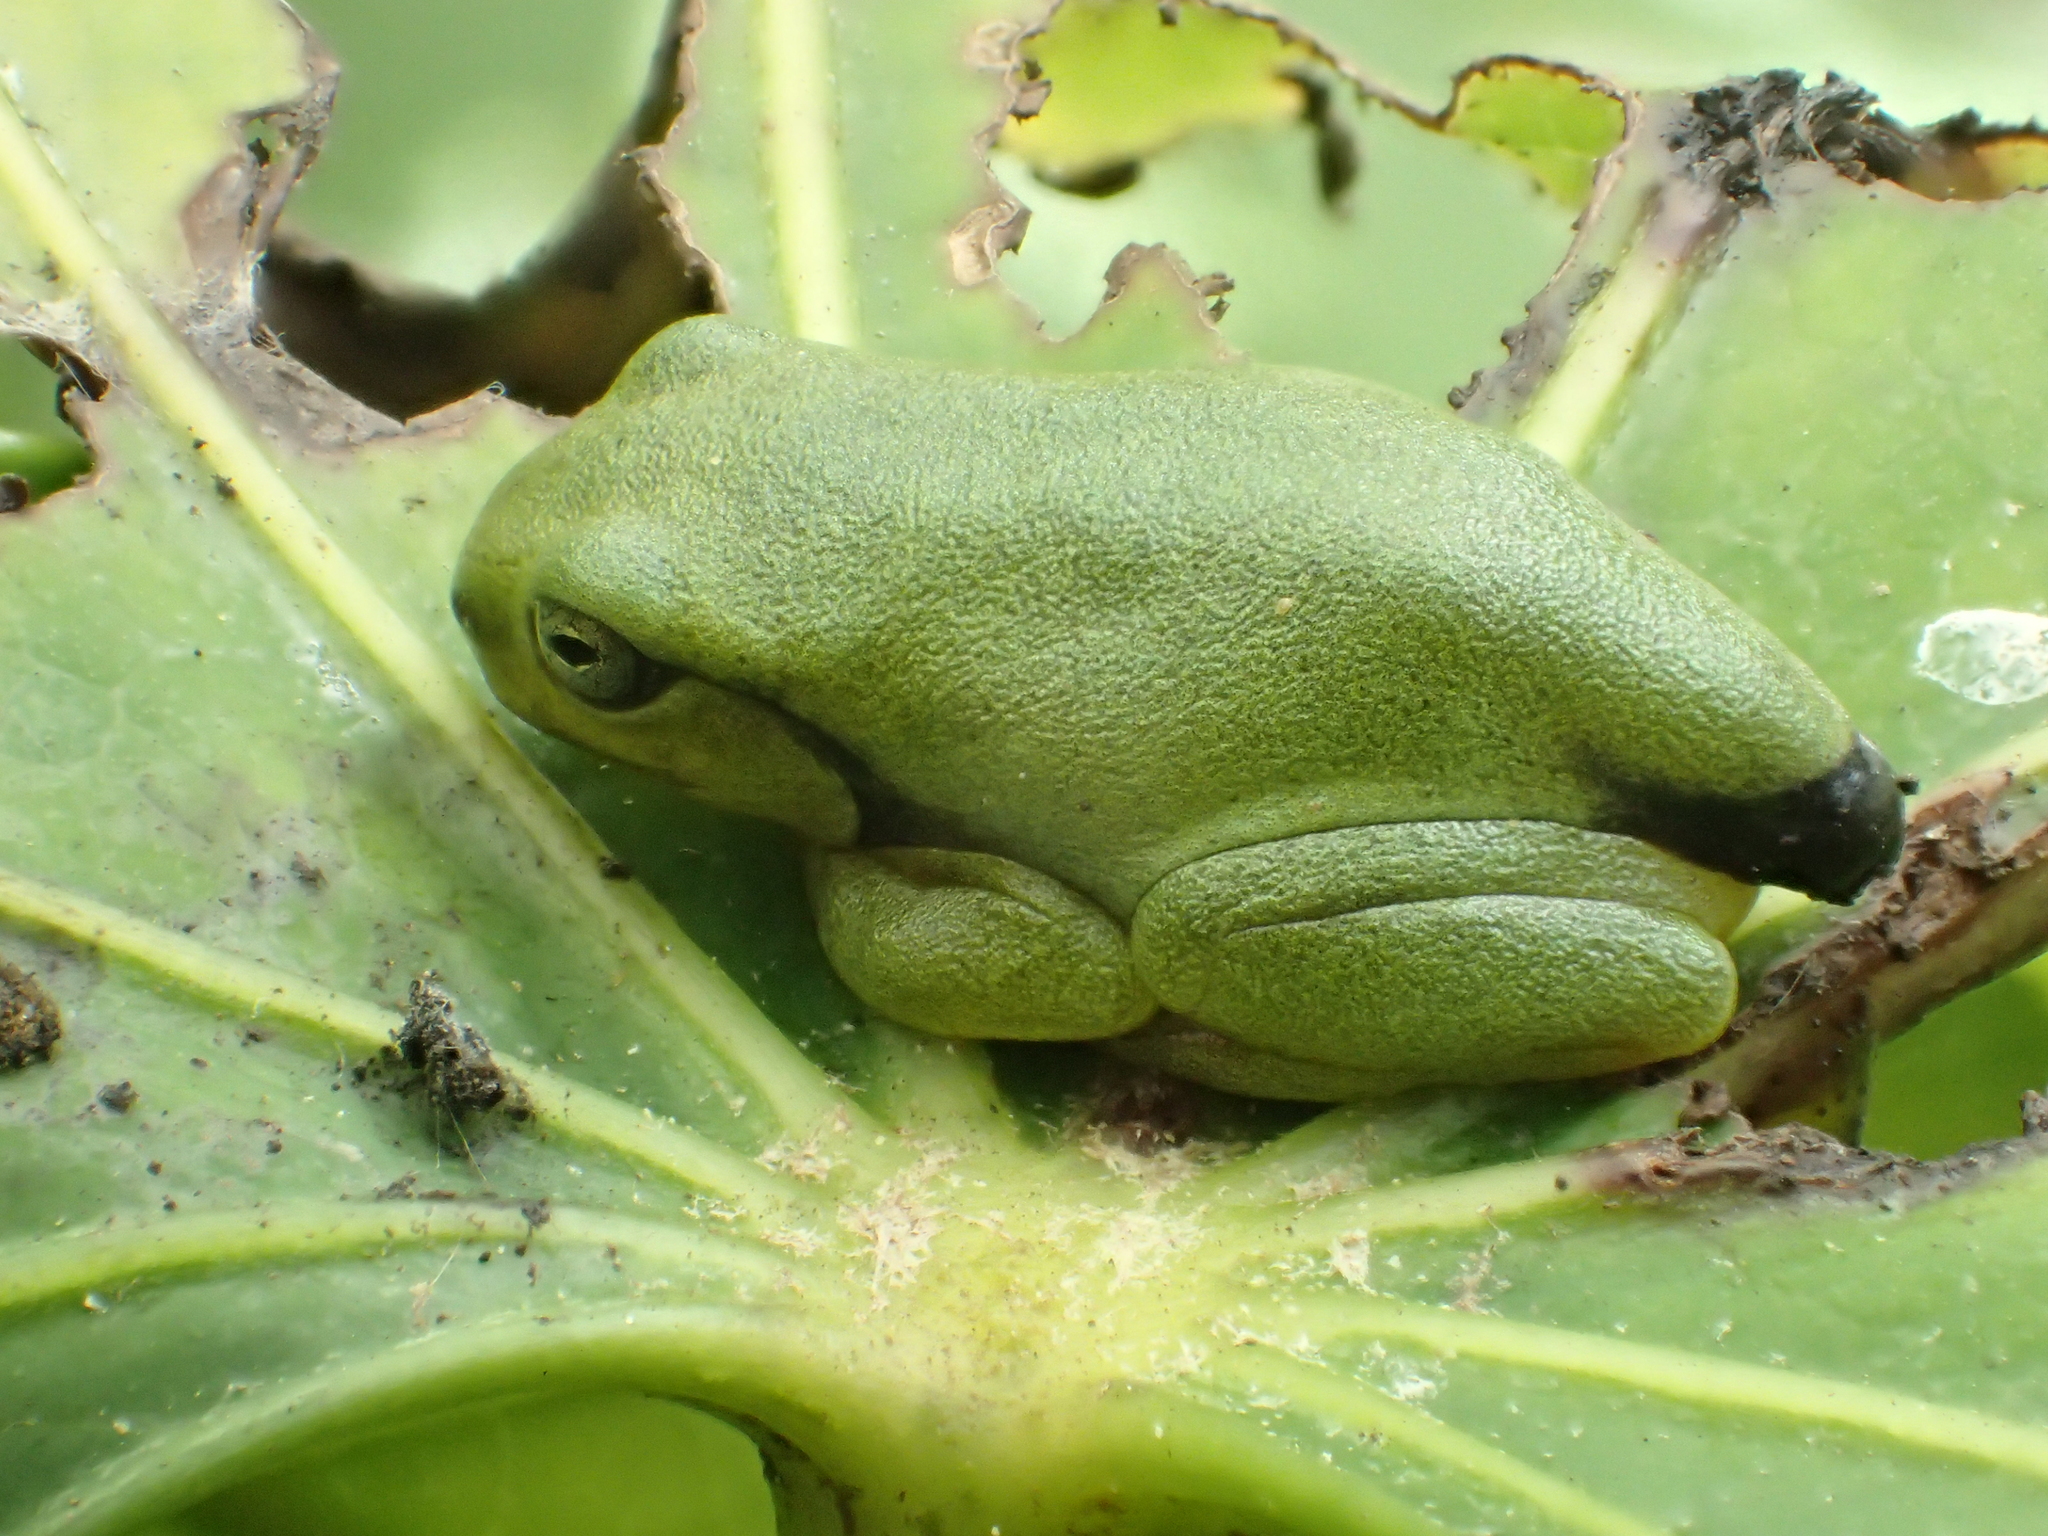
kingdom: Animalia
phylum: Chordata
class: Amphibia
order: Anura
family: Rhacophoridae
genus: Zhangixalus
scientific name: Zhangixalus moltrechti
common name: Moltrecht's treefrog
